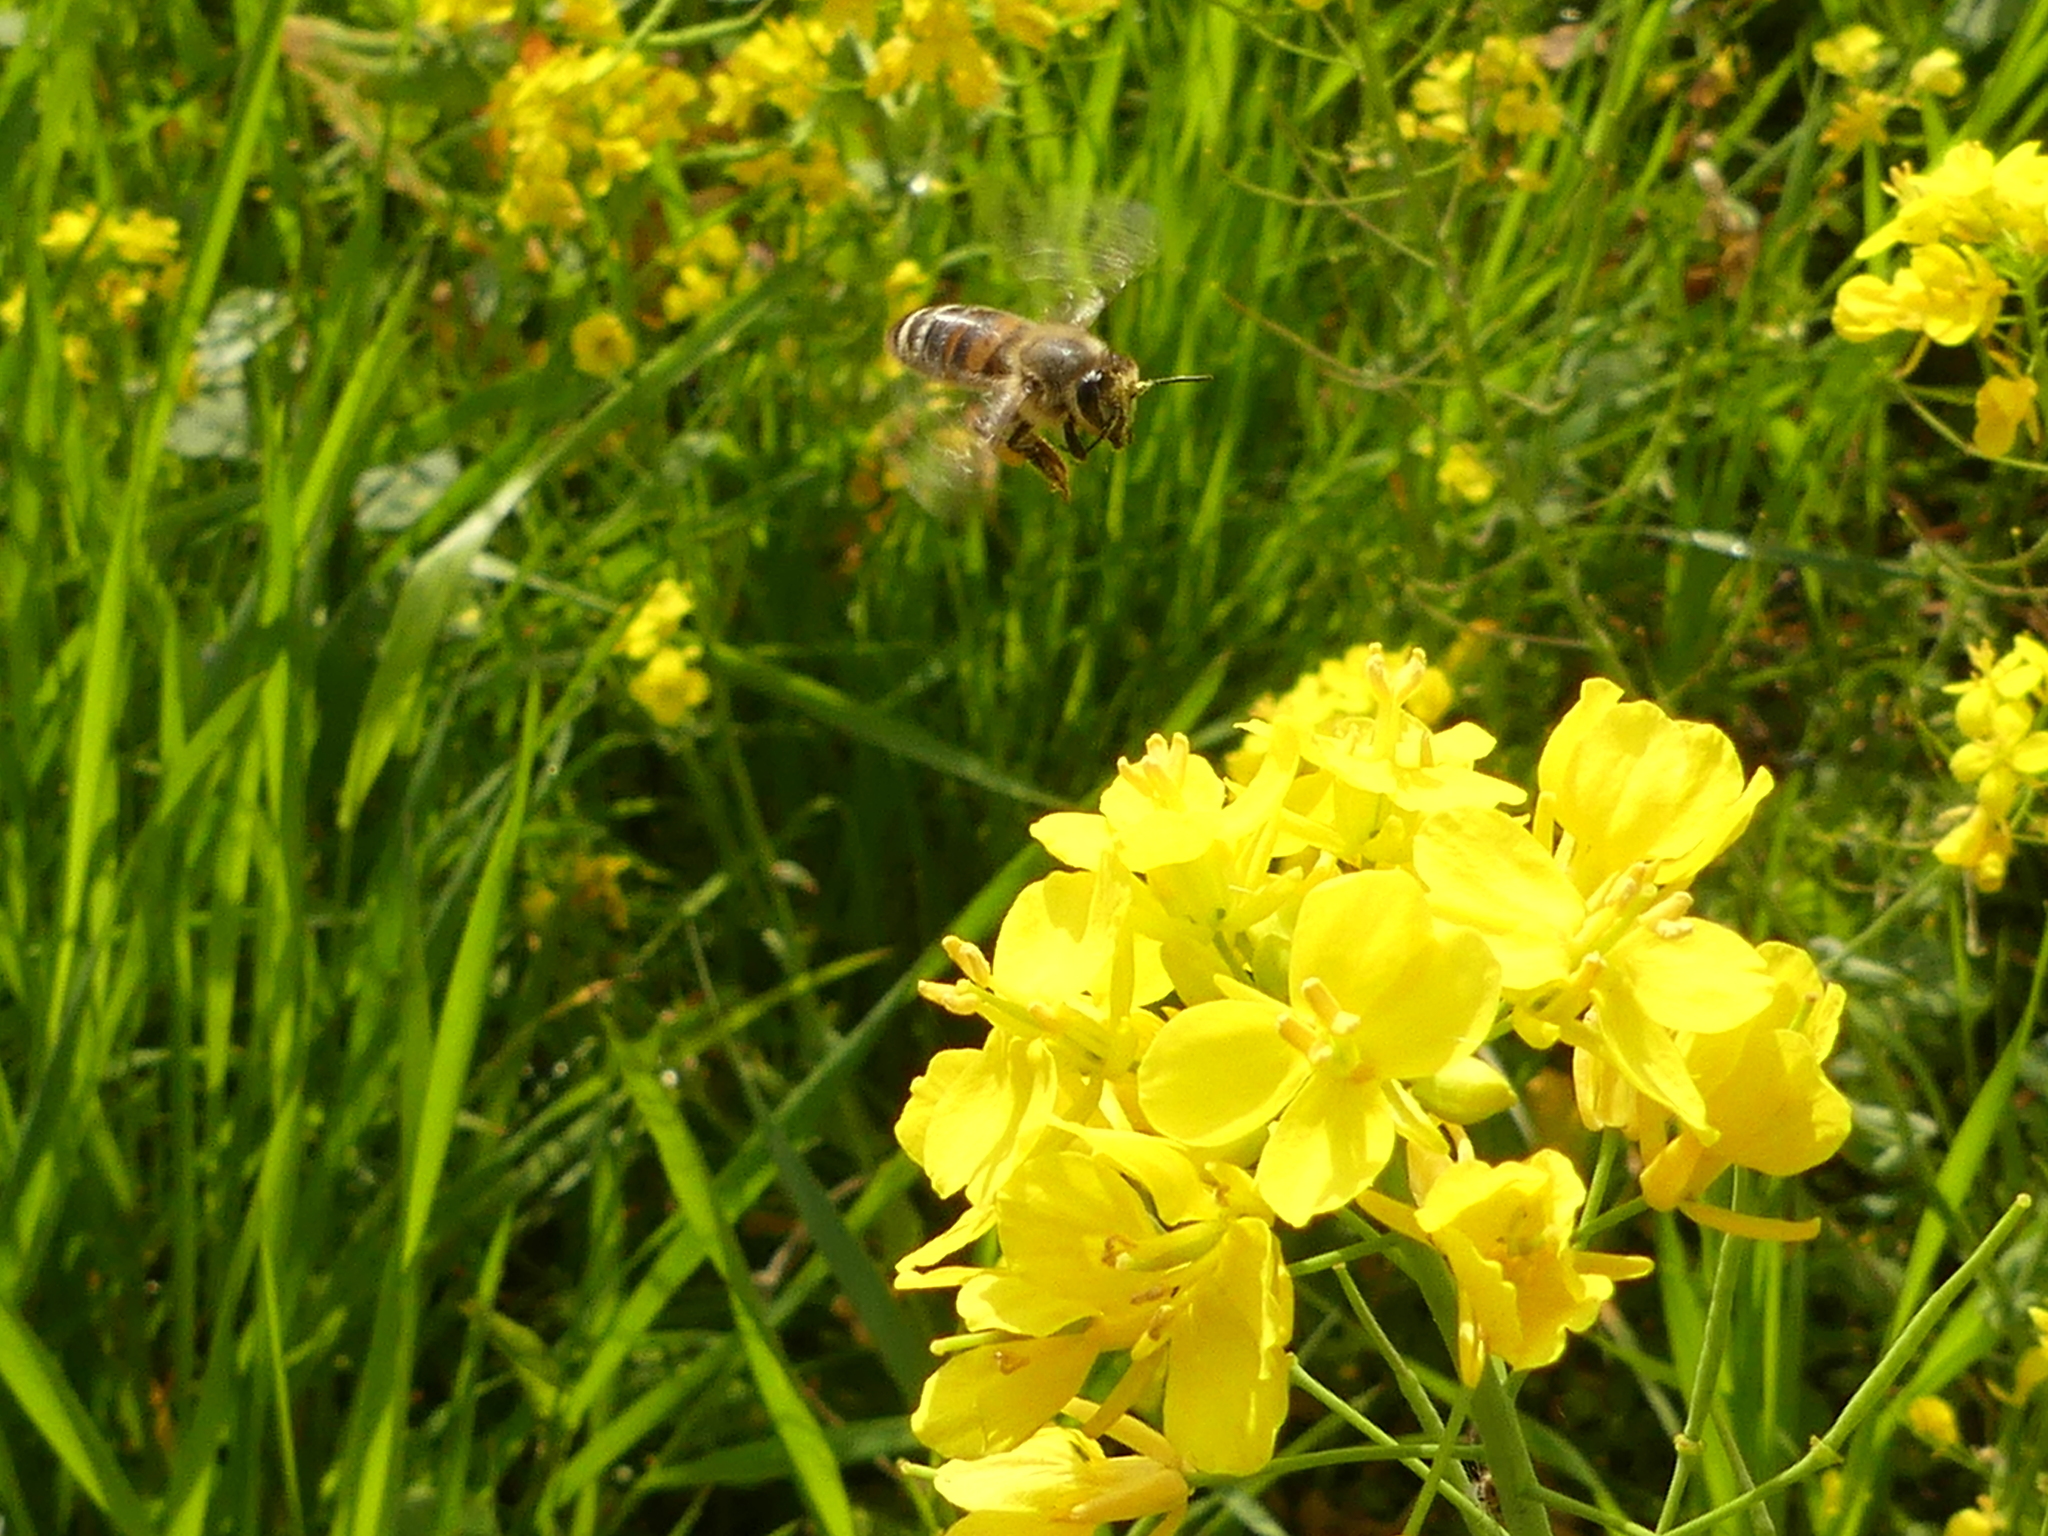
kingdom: Animalia
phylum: Arthropoda
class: Insecta
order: Hymenoptera
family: Apidae
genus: Apis
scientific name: Apis mellifera
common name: Honey bee
